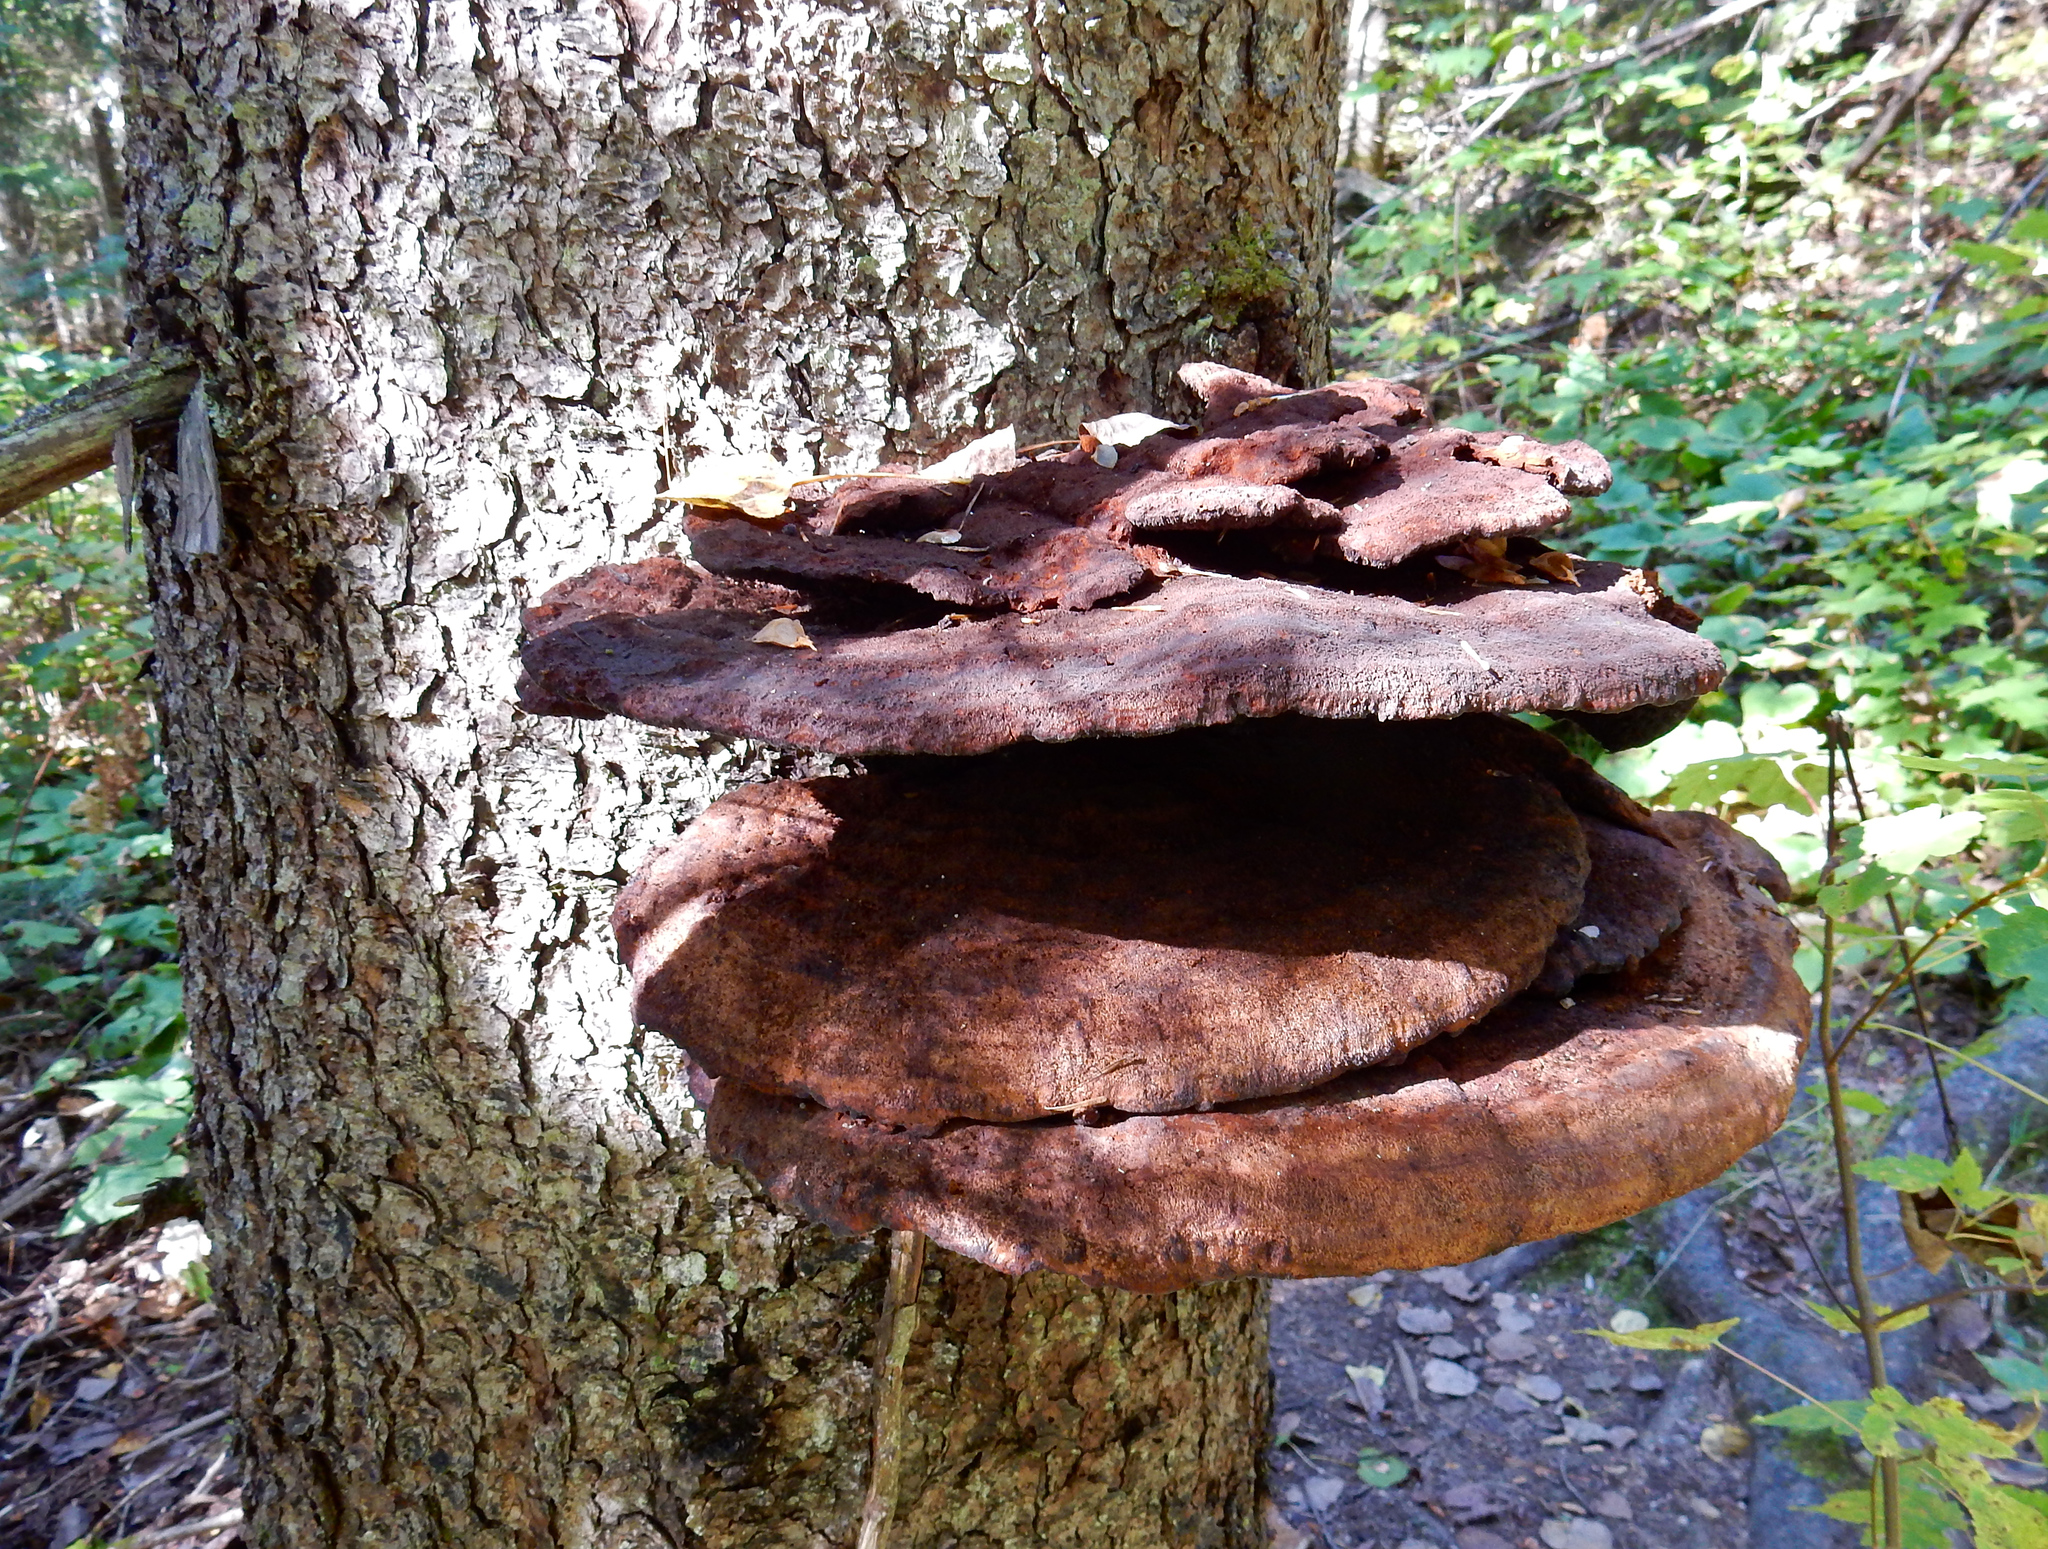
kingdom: Fungi
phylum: Basidiomycota
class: Agaricomycetes
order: Polyporales
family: Polyporaceae
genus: Ganoderma
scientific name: Ganoderma tsugae
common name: Hemlock varnish shelf
